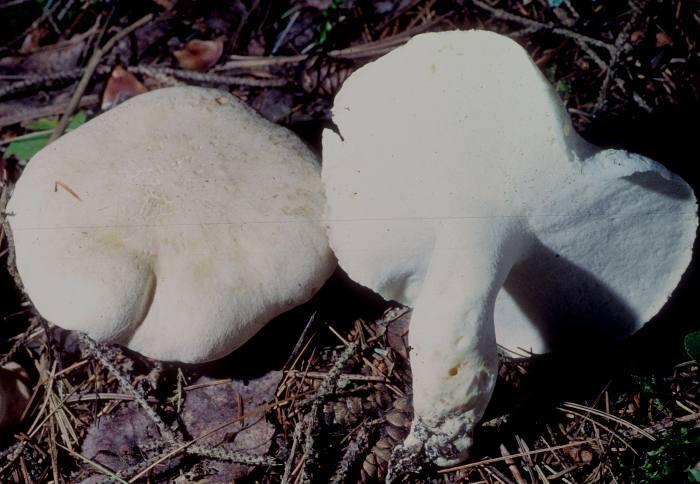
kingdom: Fungi
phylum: Basidiomycota
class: Agaricomycetes
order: Russulales
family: Albatrellaceae
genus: Albatrellus
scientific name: Albatrellus ovinus
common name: Forest lamb
